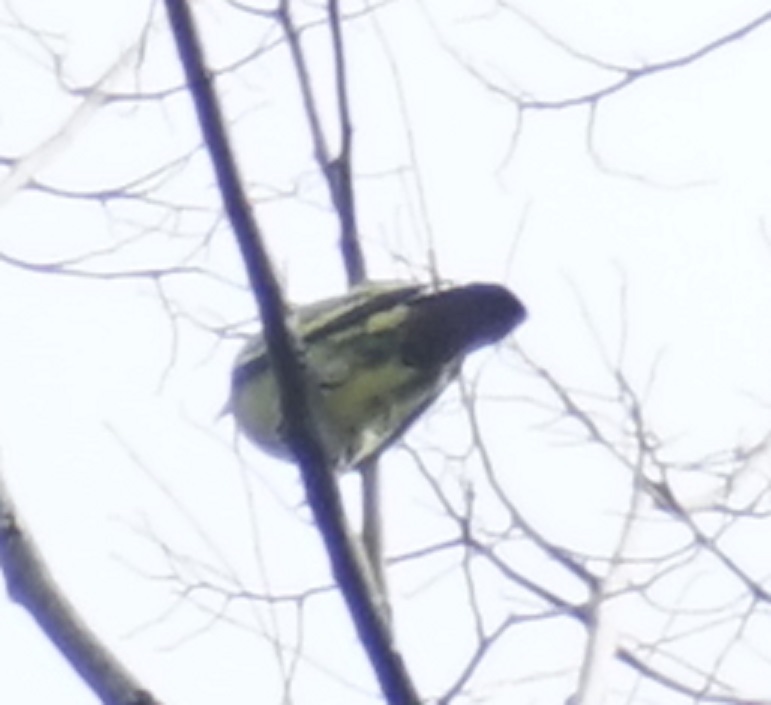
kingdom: Animalia
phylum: Chordata
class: Aves
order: Columbiformes
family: Columbidae
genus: Treron
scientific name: Treron vernans
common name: Pink-necked green pigeon
